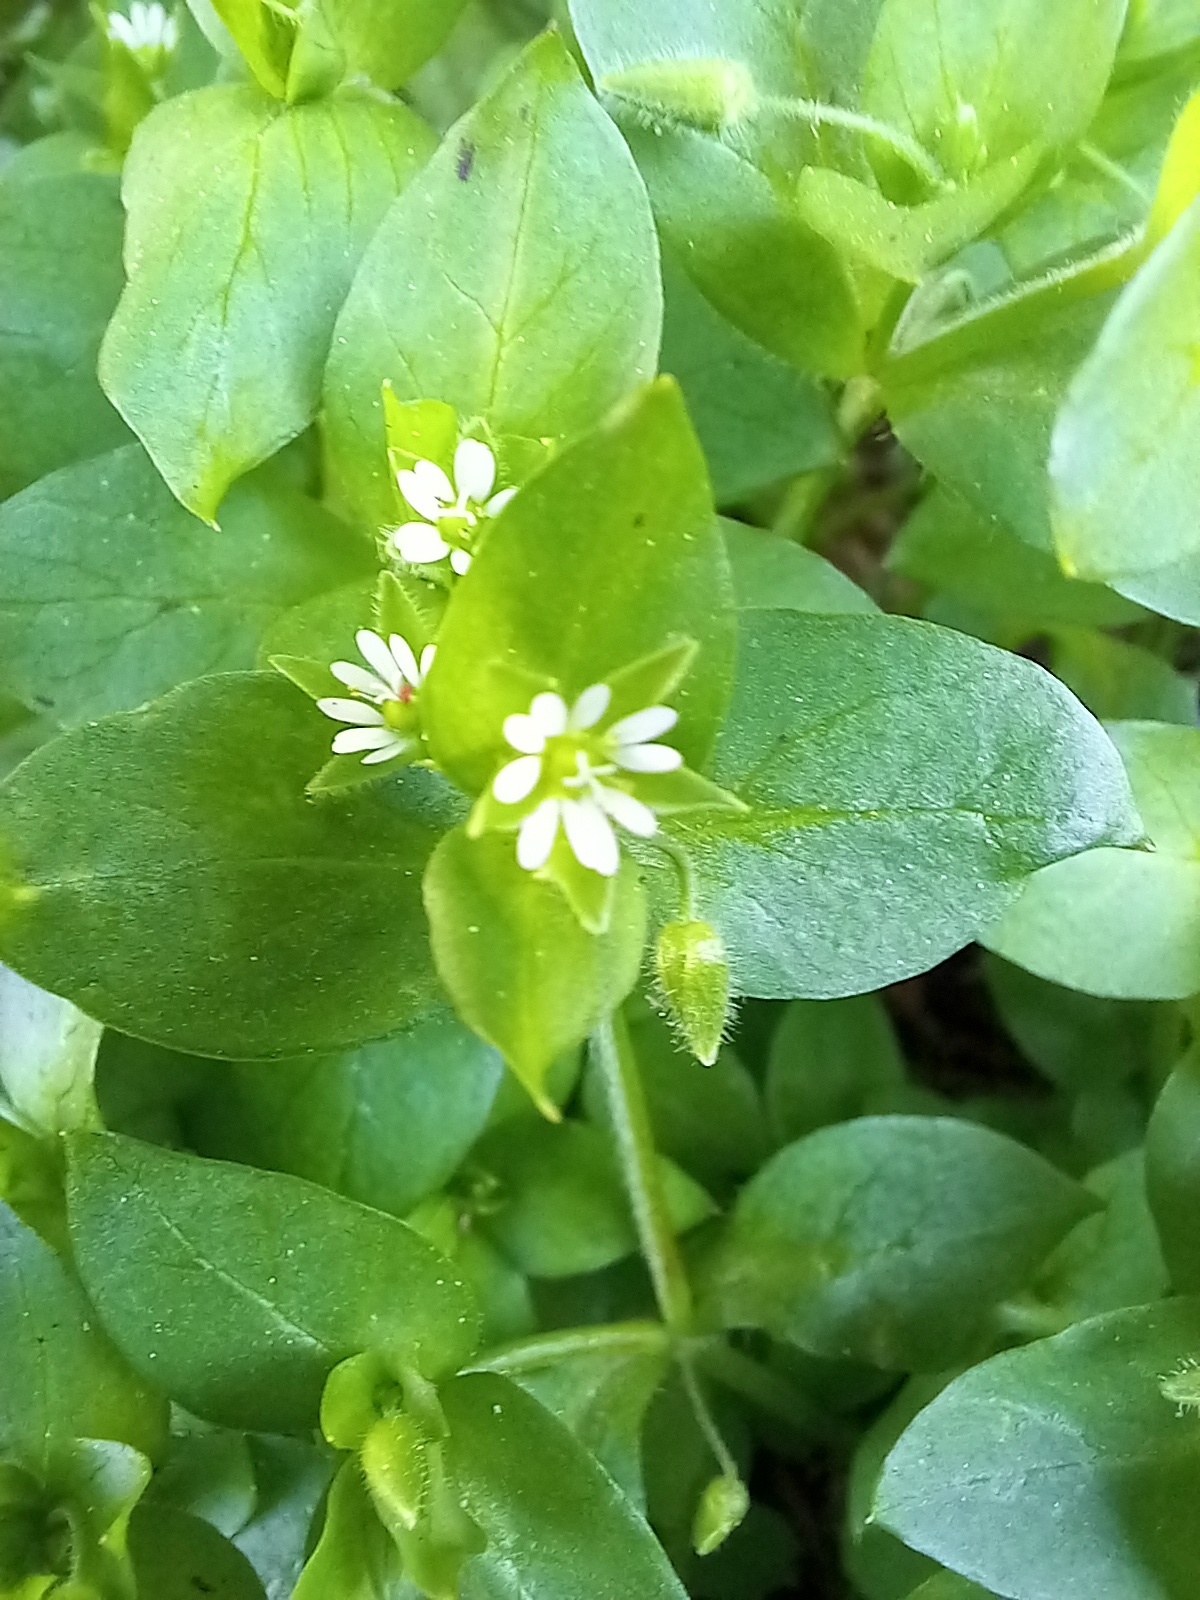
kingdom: Plantae
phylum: Tracheophyta
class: Magnoliopsida
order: Caryophyllales
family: Caryophyllaceae
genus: Stellaria
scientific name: Stellaria media
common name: Common chickweed
